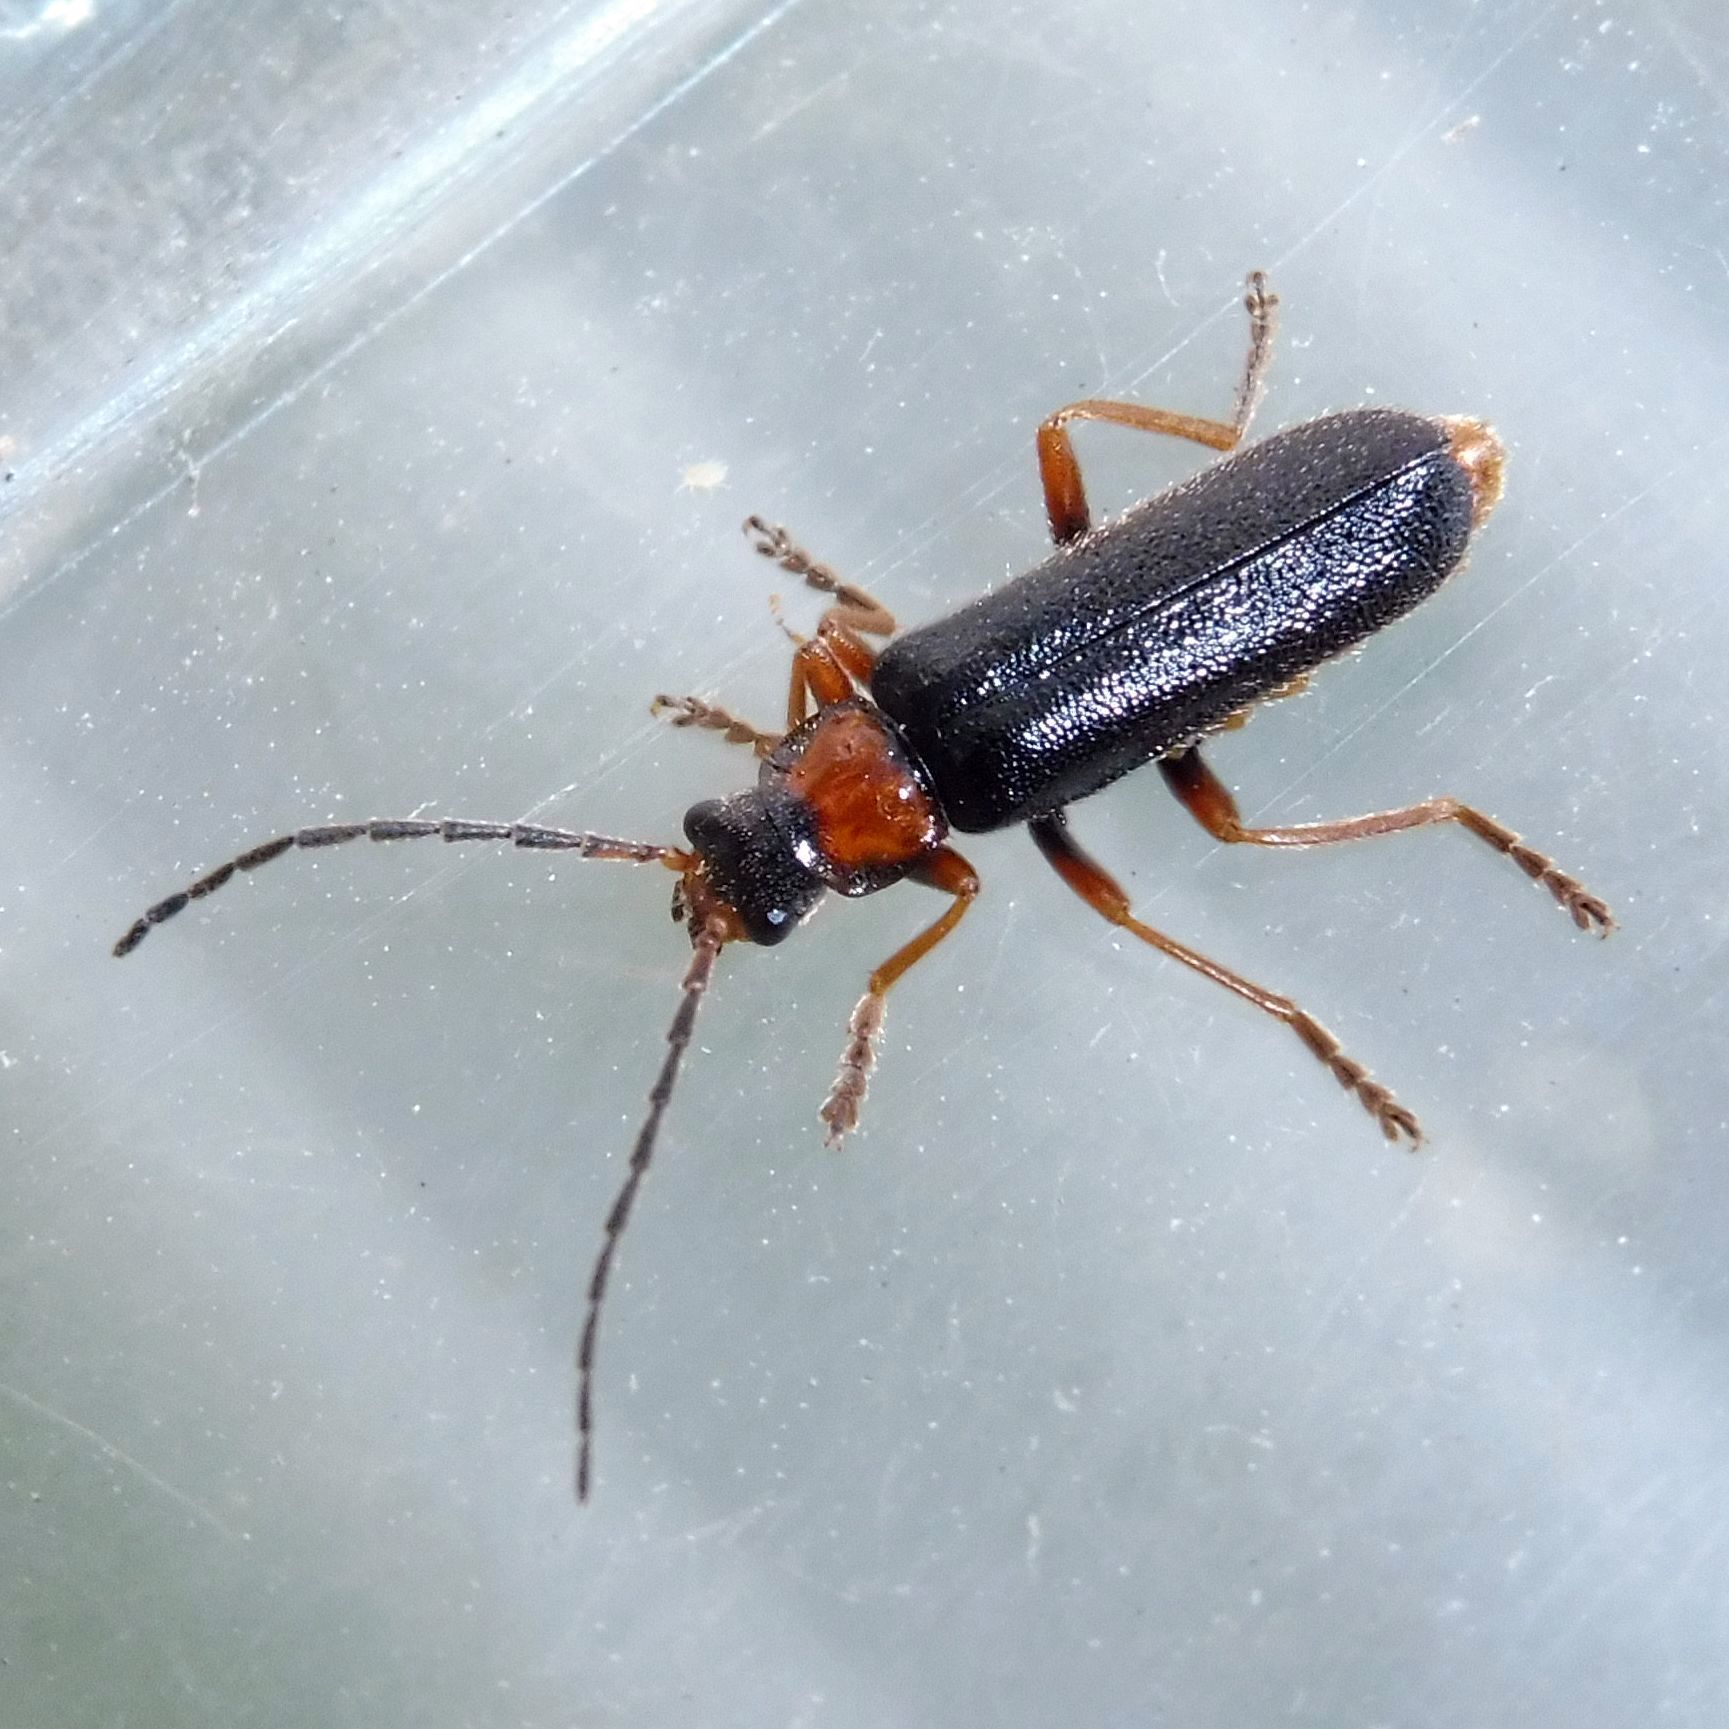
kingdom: Animalia
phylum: Arthropoda
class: Insecta
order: Coleoptera
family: Cantharidae
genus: Cantharis
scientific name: Cantharis flavilabris
